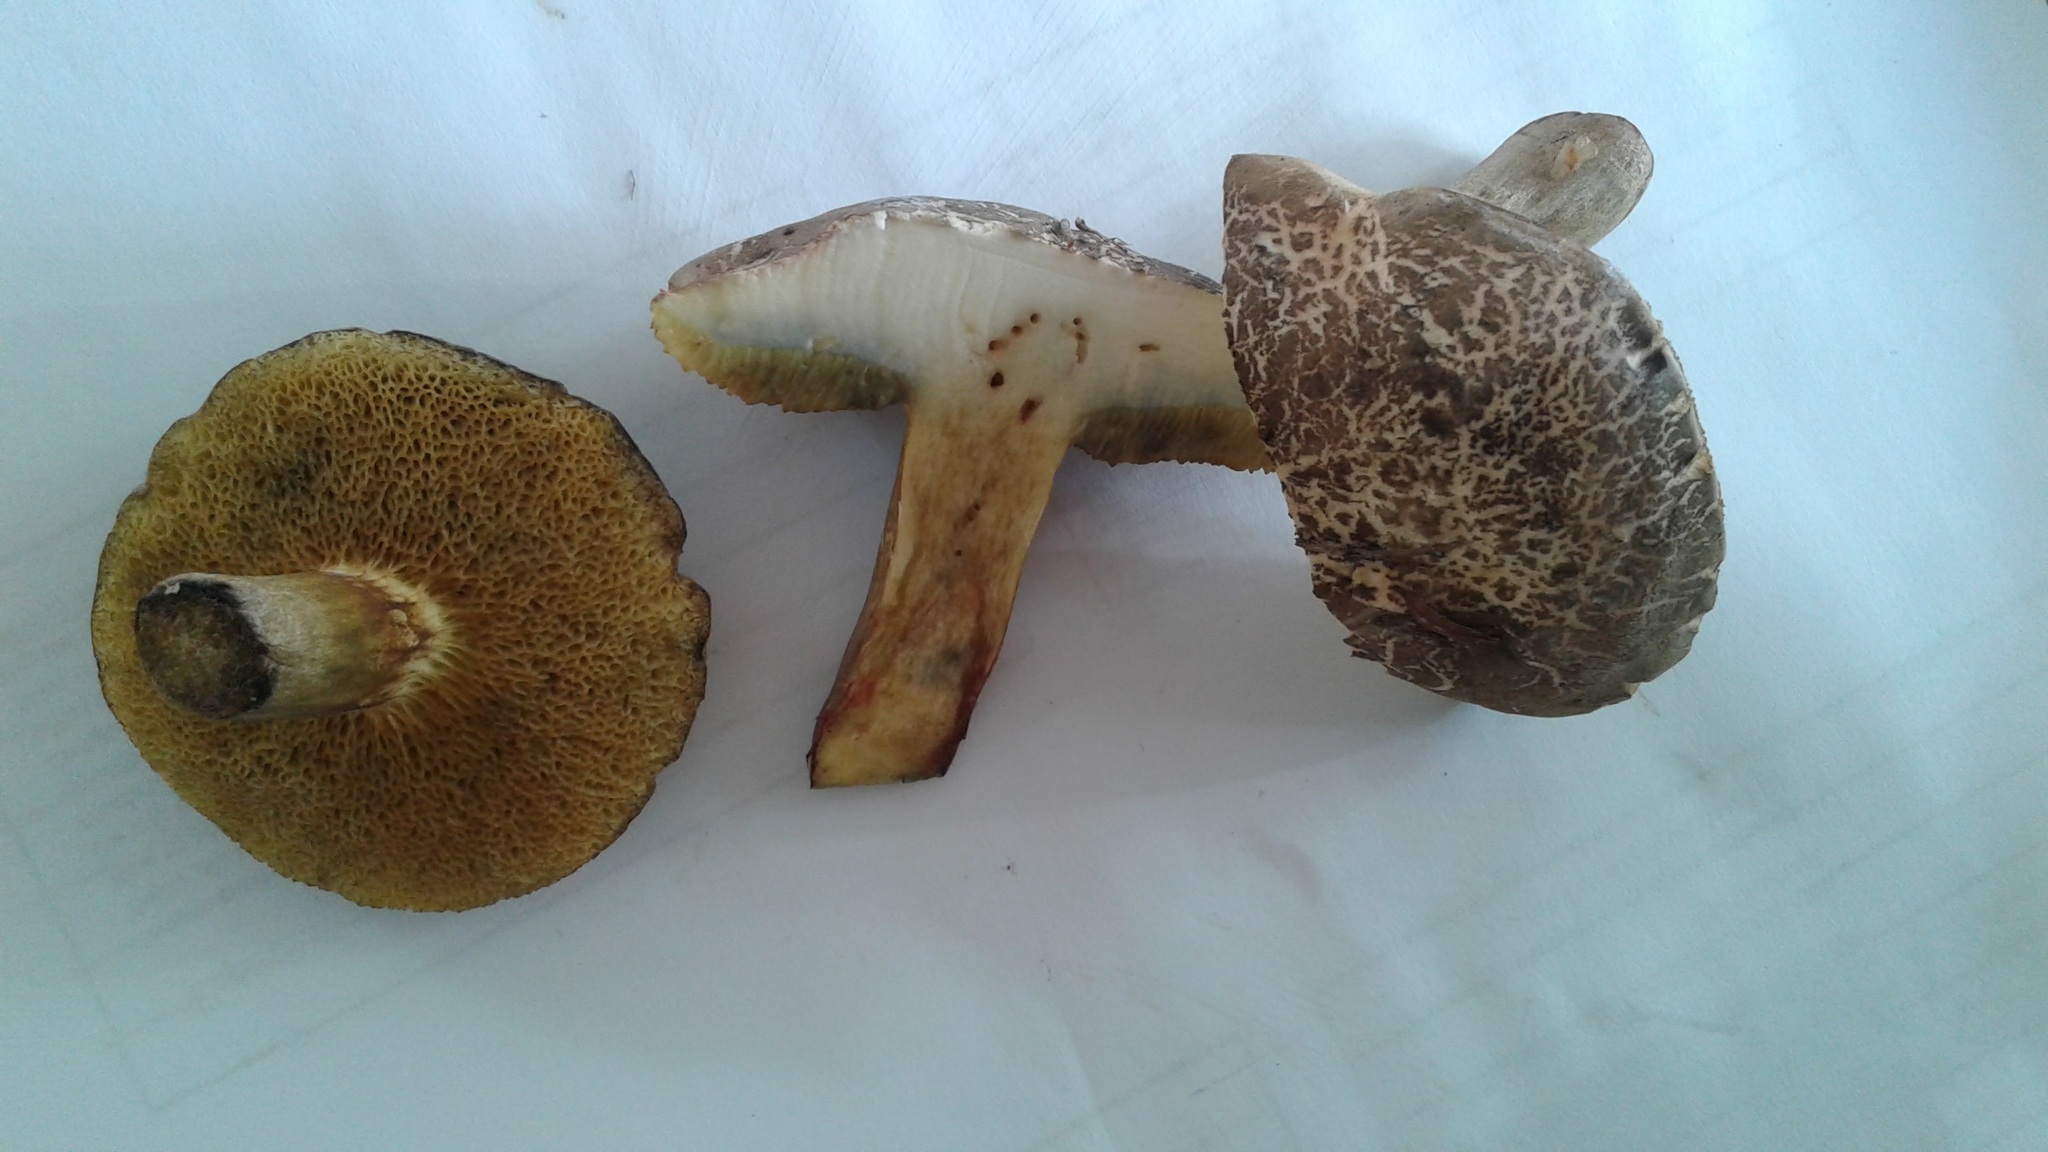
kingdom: Fungi
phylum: Basidiomycota
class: Agaricomycetes
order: Boletales
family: Boletaceae
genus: Xerocomellus
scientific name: Xerocomellus cisalpinus
